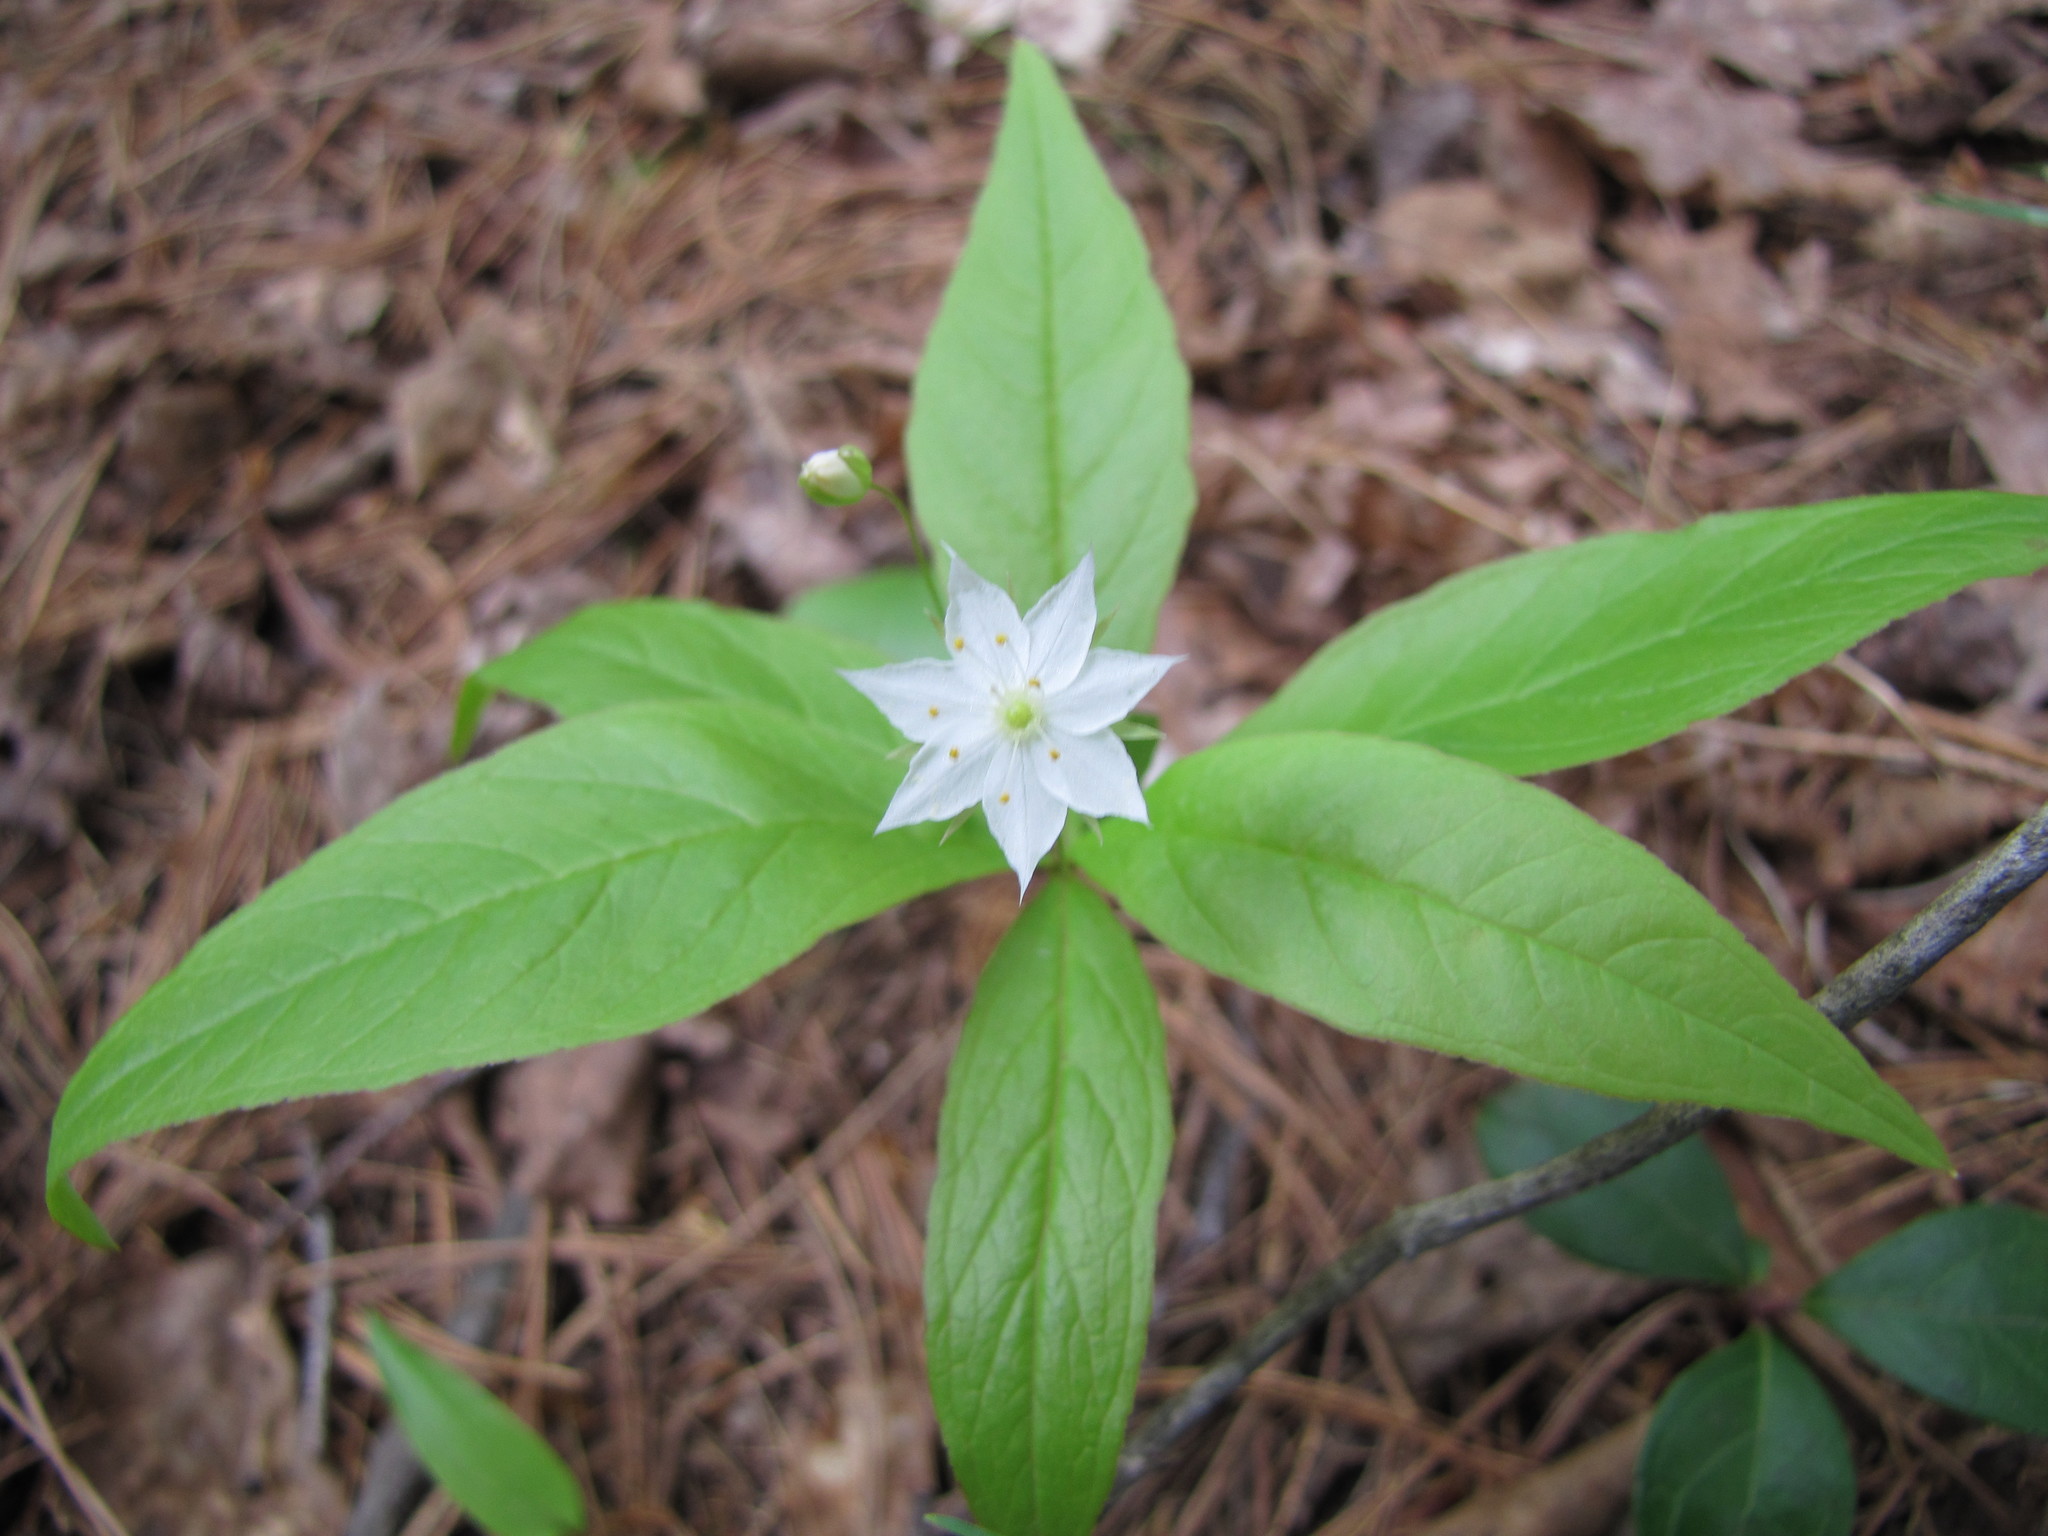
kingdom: Plantae
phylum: Tracheophyta
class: Magnoliopsida
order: Ericales
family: Primulaceae
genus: Lysimachia
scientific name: Lysimachia borealis
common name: American starflower
